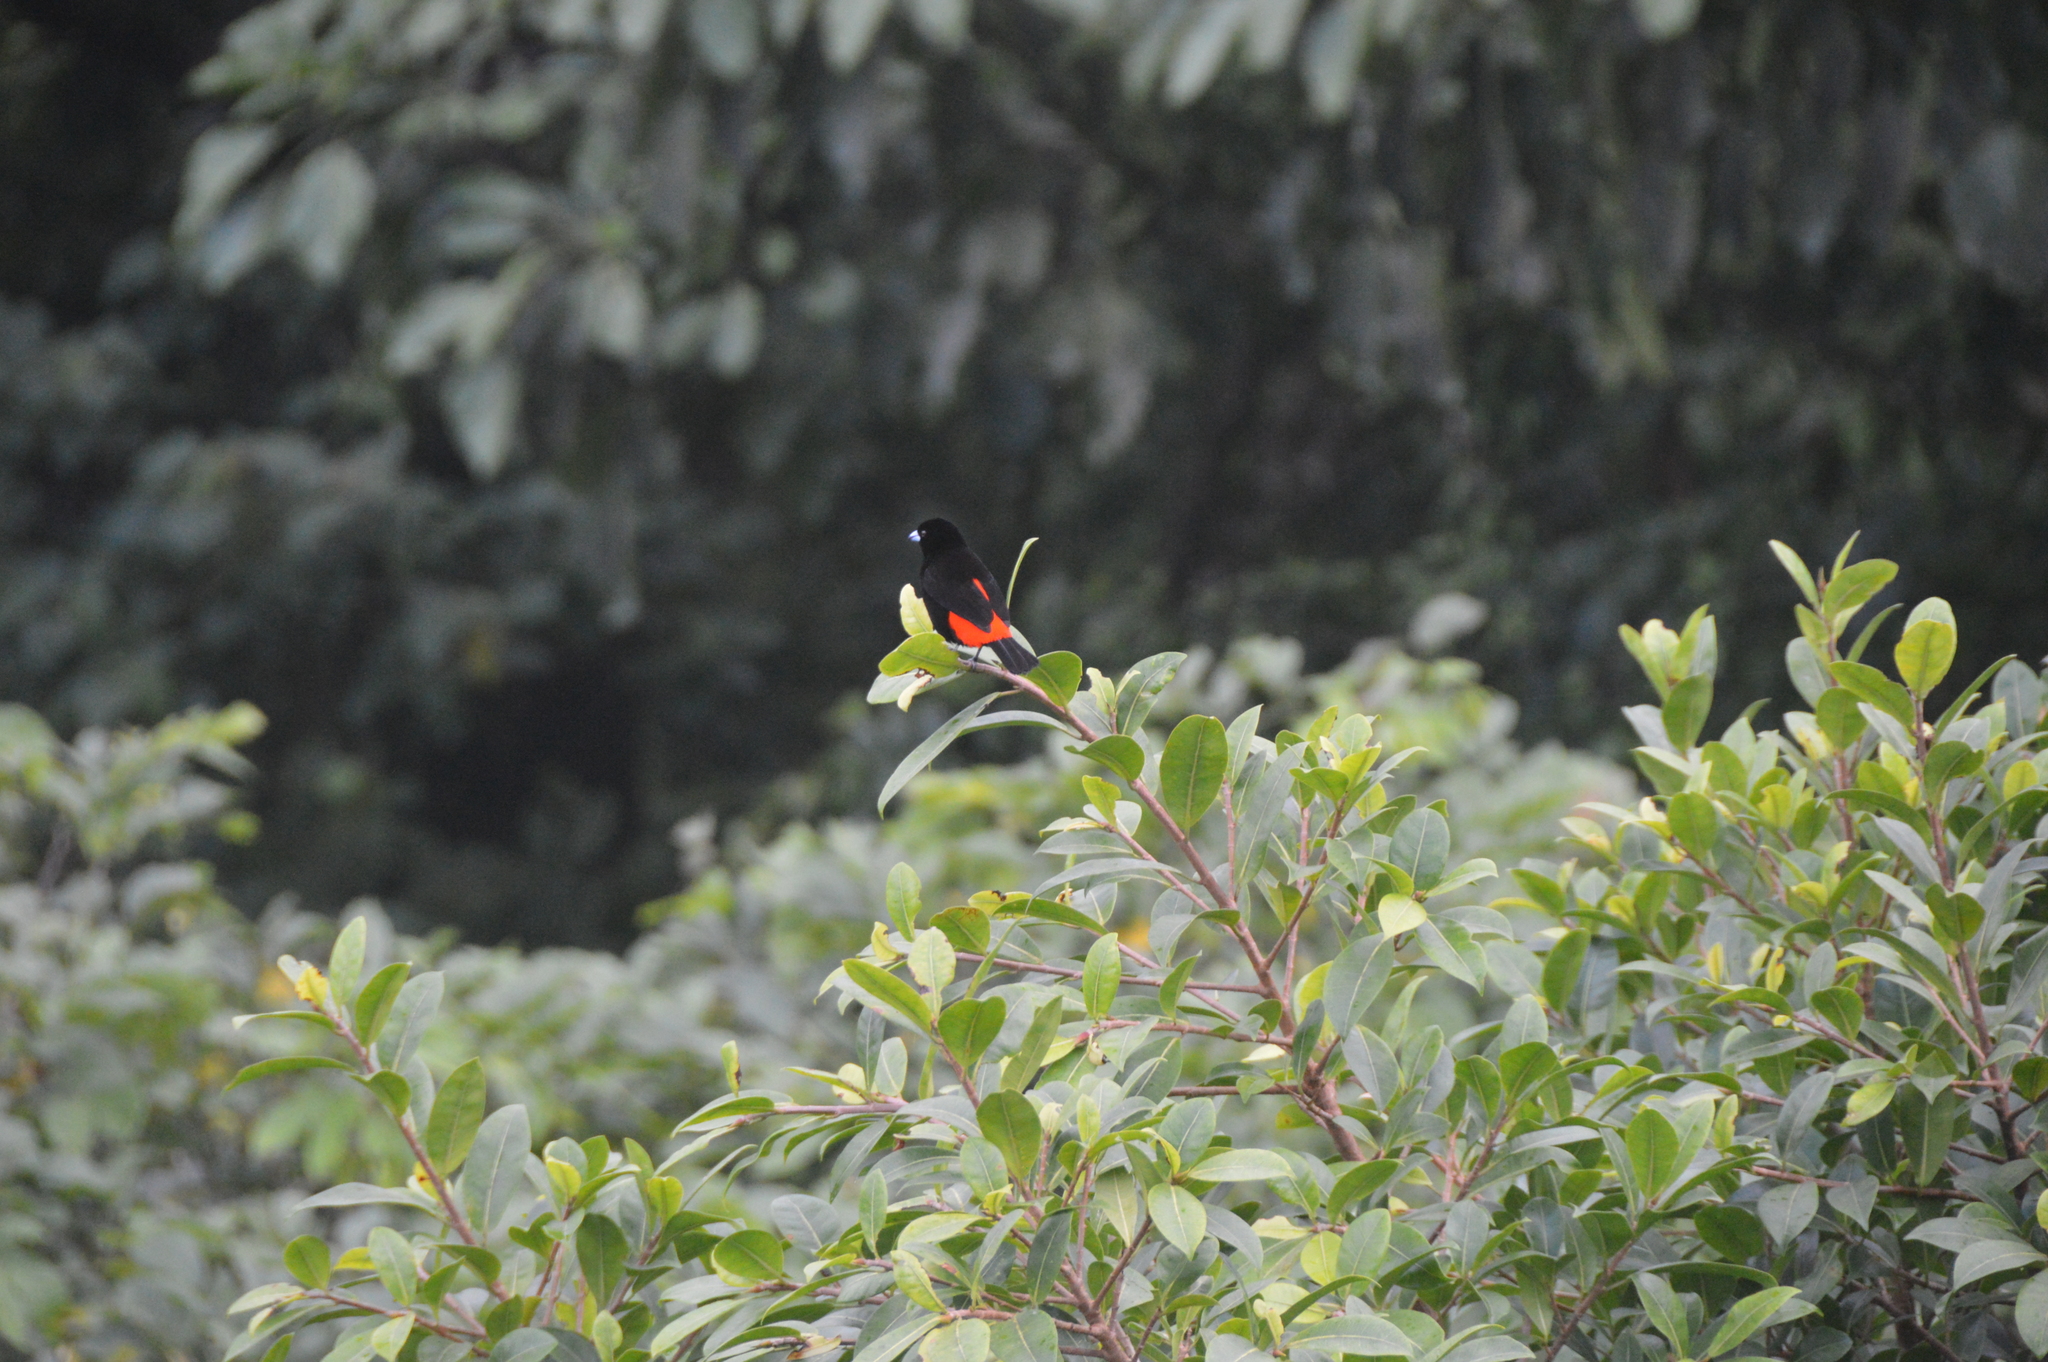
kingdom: Animalia
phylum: Chordata
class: Aves
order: Passeriformes
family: Thraupidae
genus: Ramphocelus
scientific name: Ramphocelus passerinii
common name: Passerini's tanager
